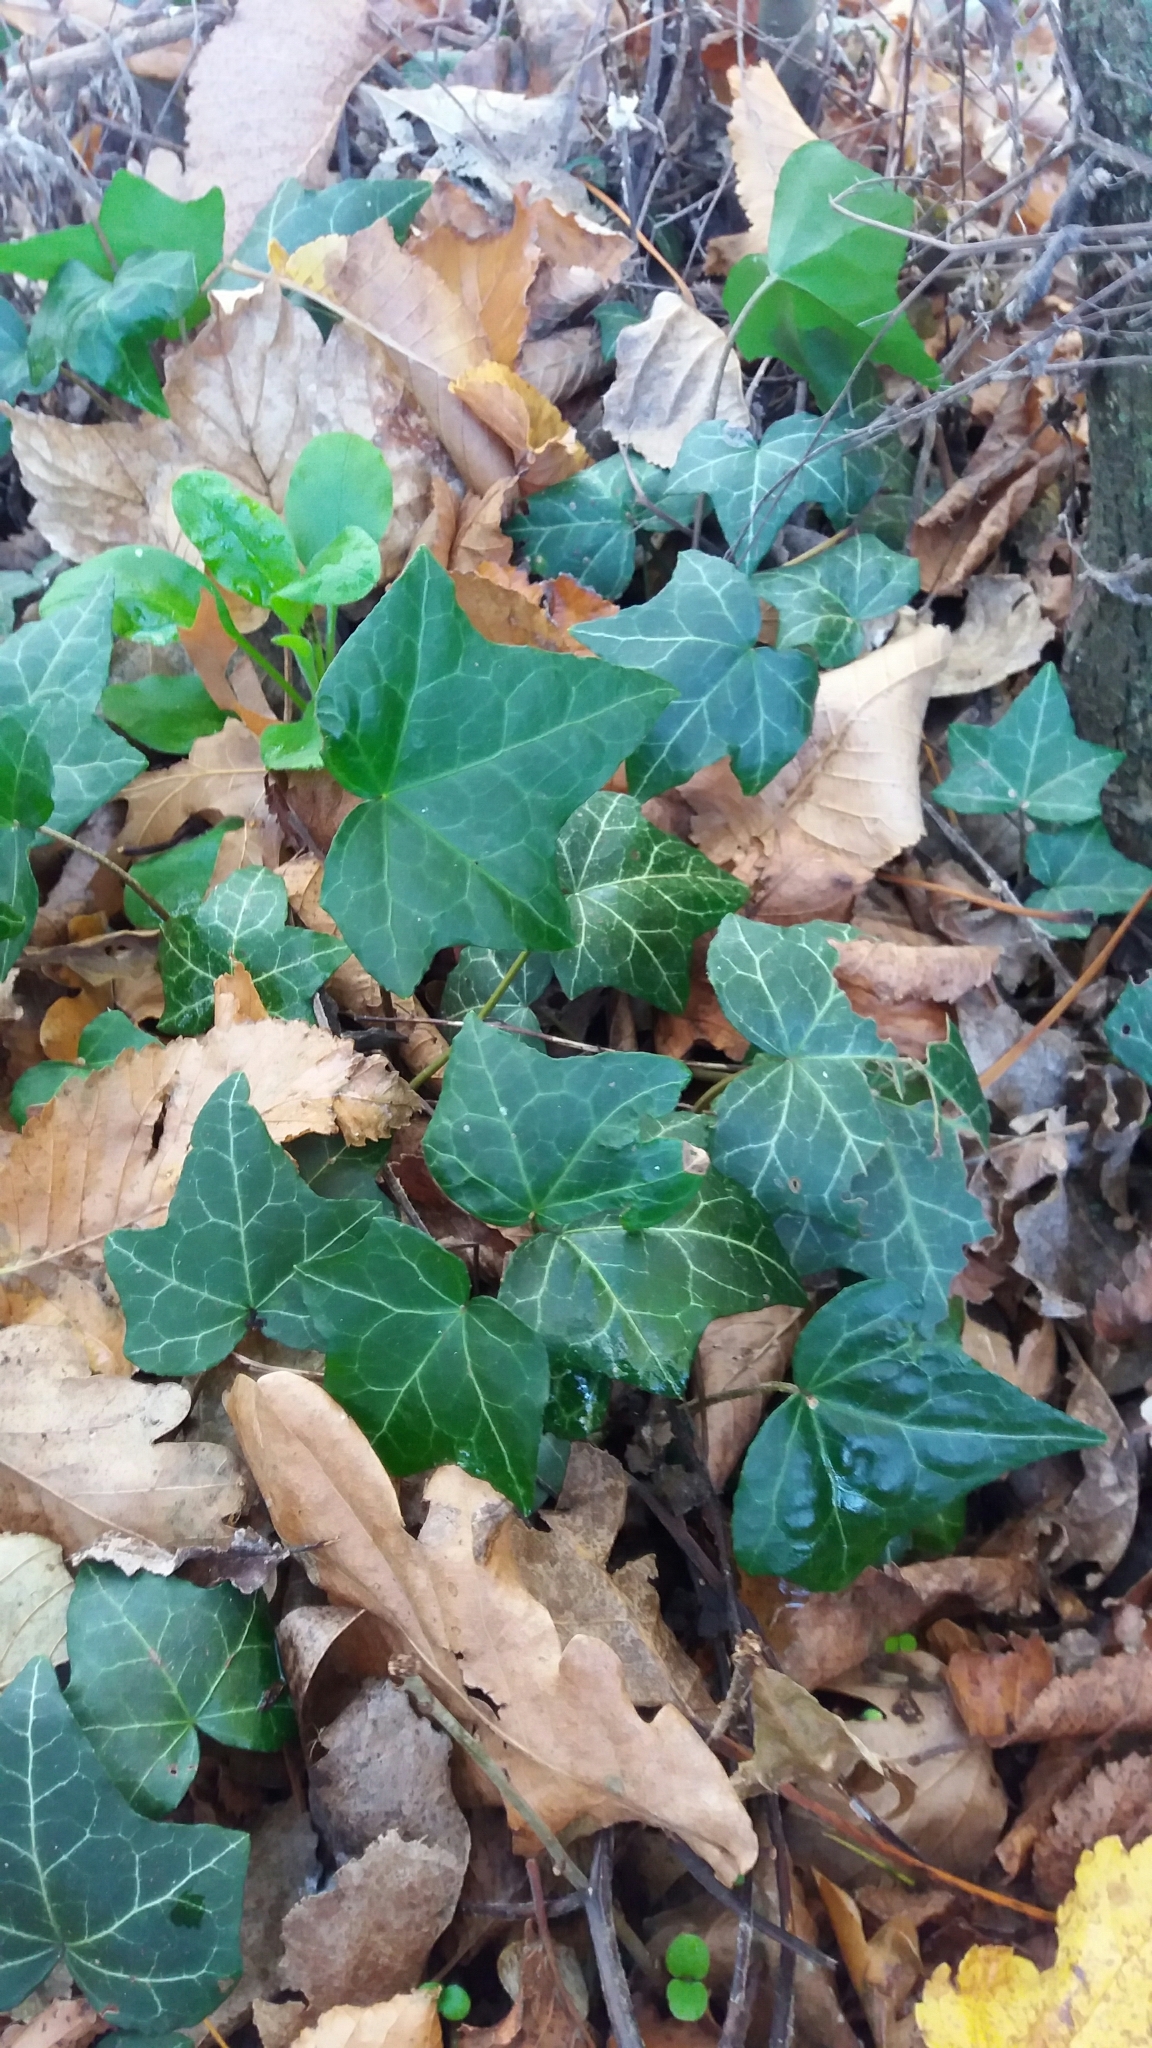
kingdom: Plantae
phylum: Tracheophyta
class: Magnoliopsida
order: Apiales
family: Araliaceae
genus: Hedera
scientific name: Hedera helix
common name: Ivy
